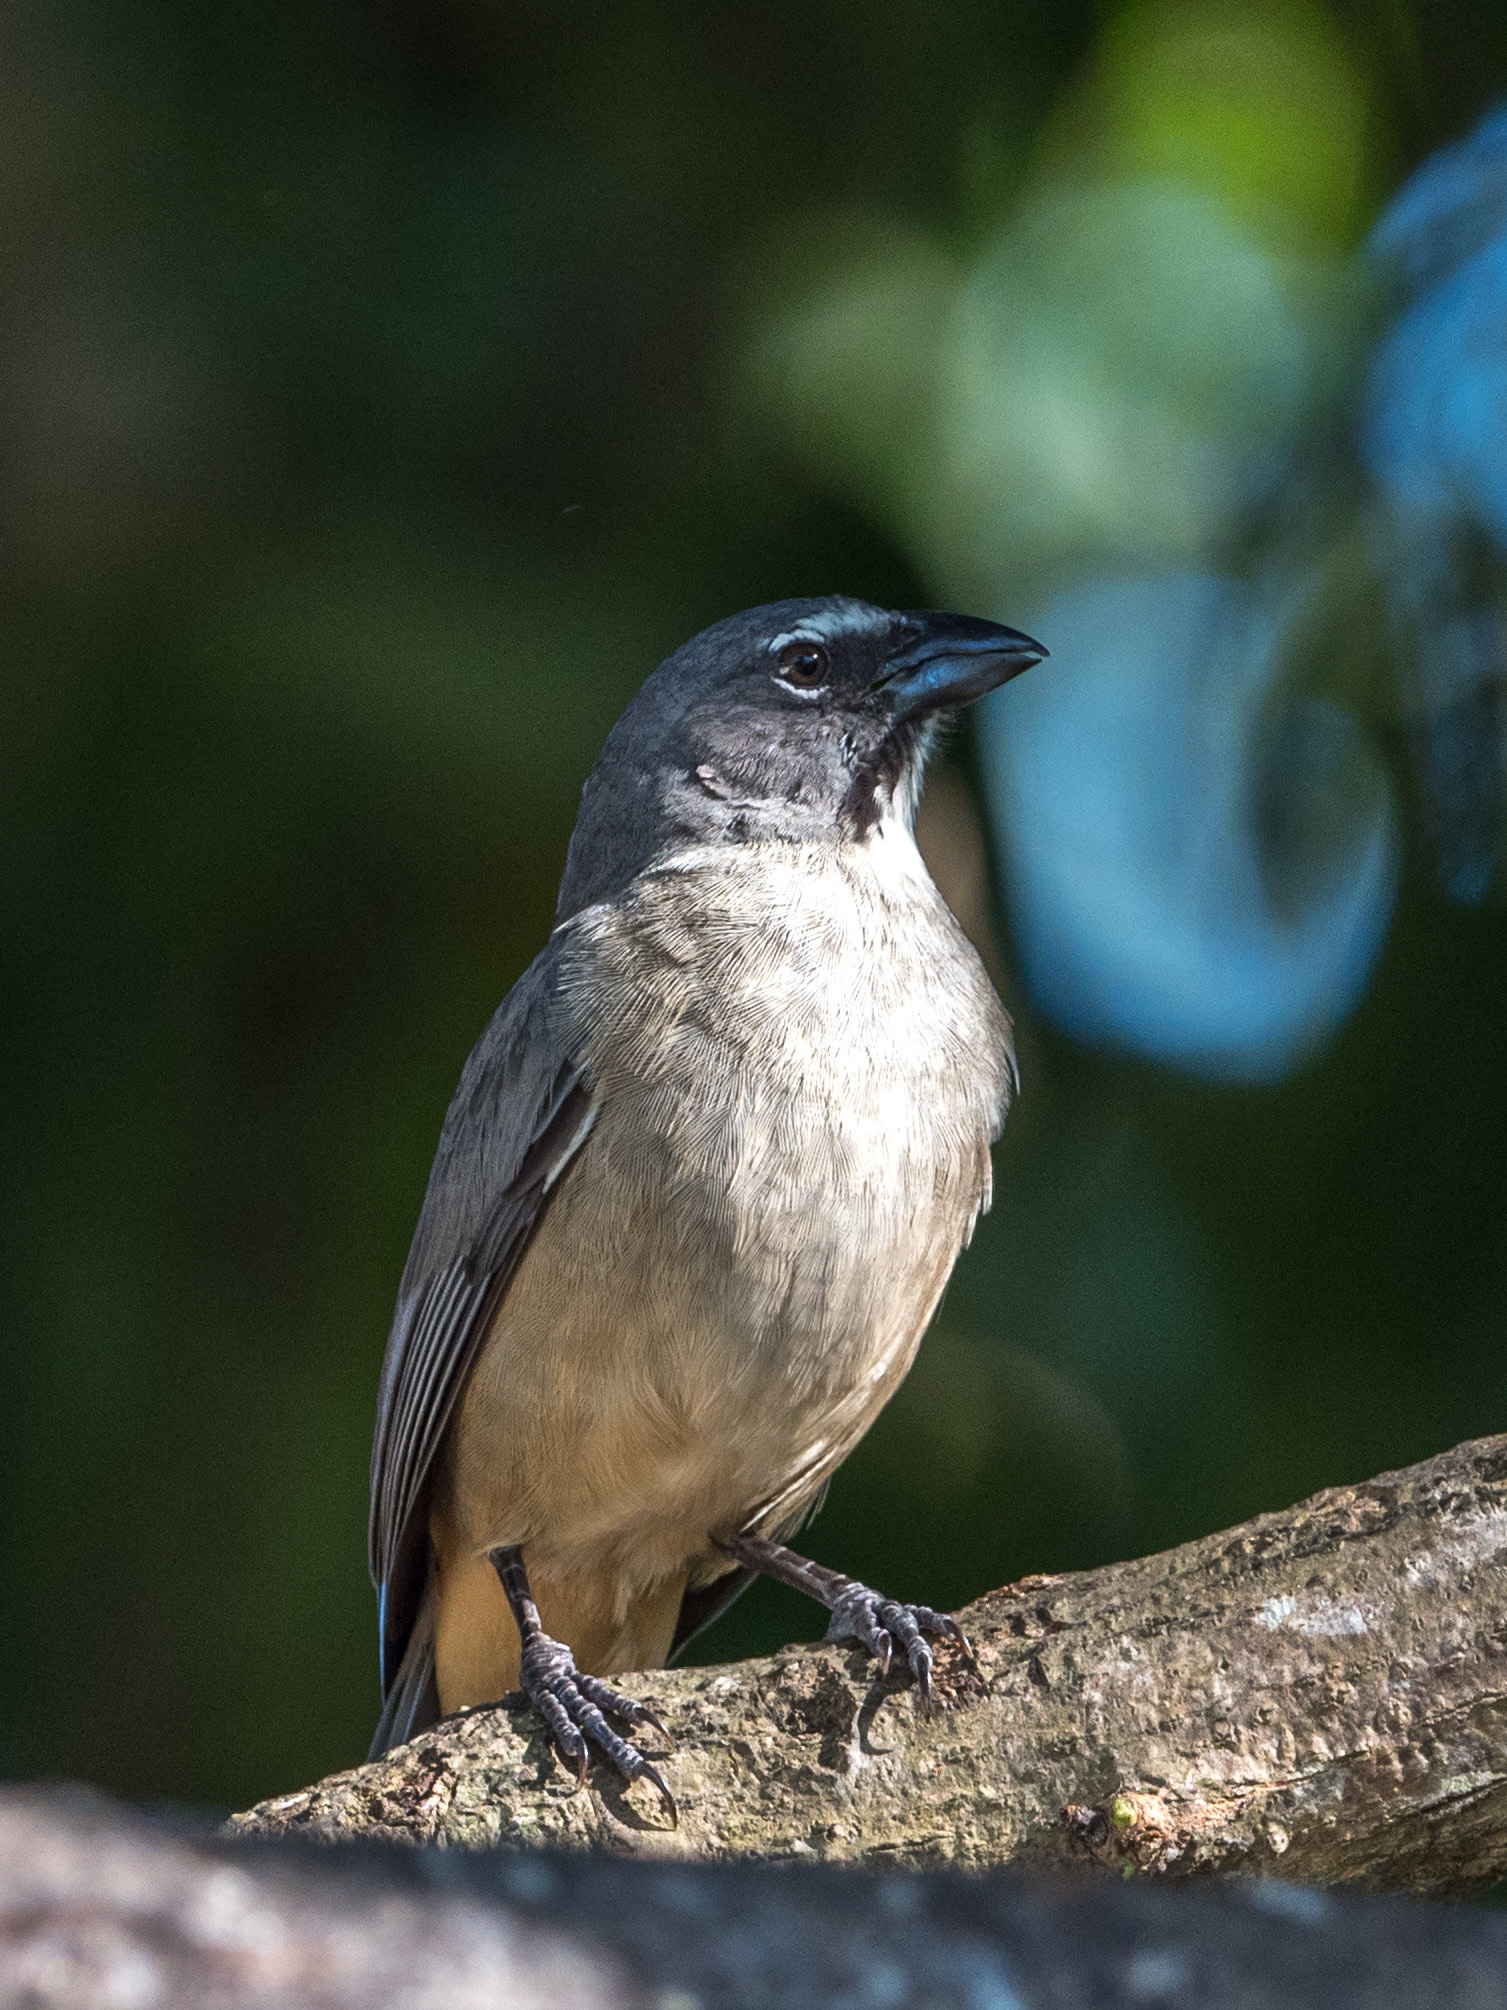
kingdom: Animalia
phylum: Chordata
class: Aves
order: Passeriformes
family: Thraupidae
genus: Saltator
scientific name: Saltator olivascens
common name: Caribbean grey saltator
